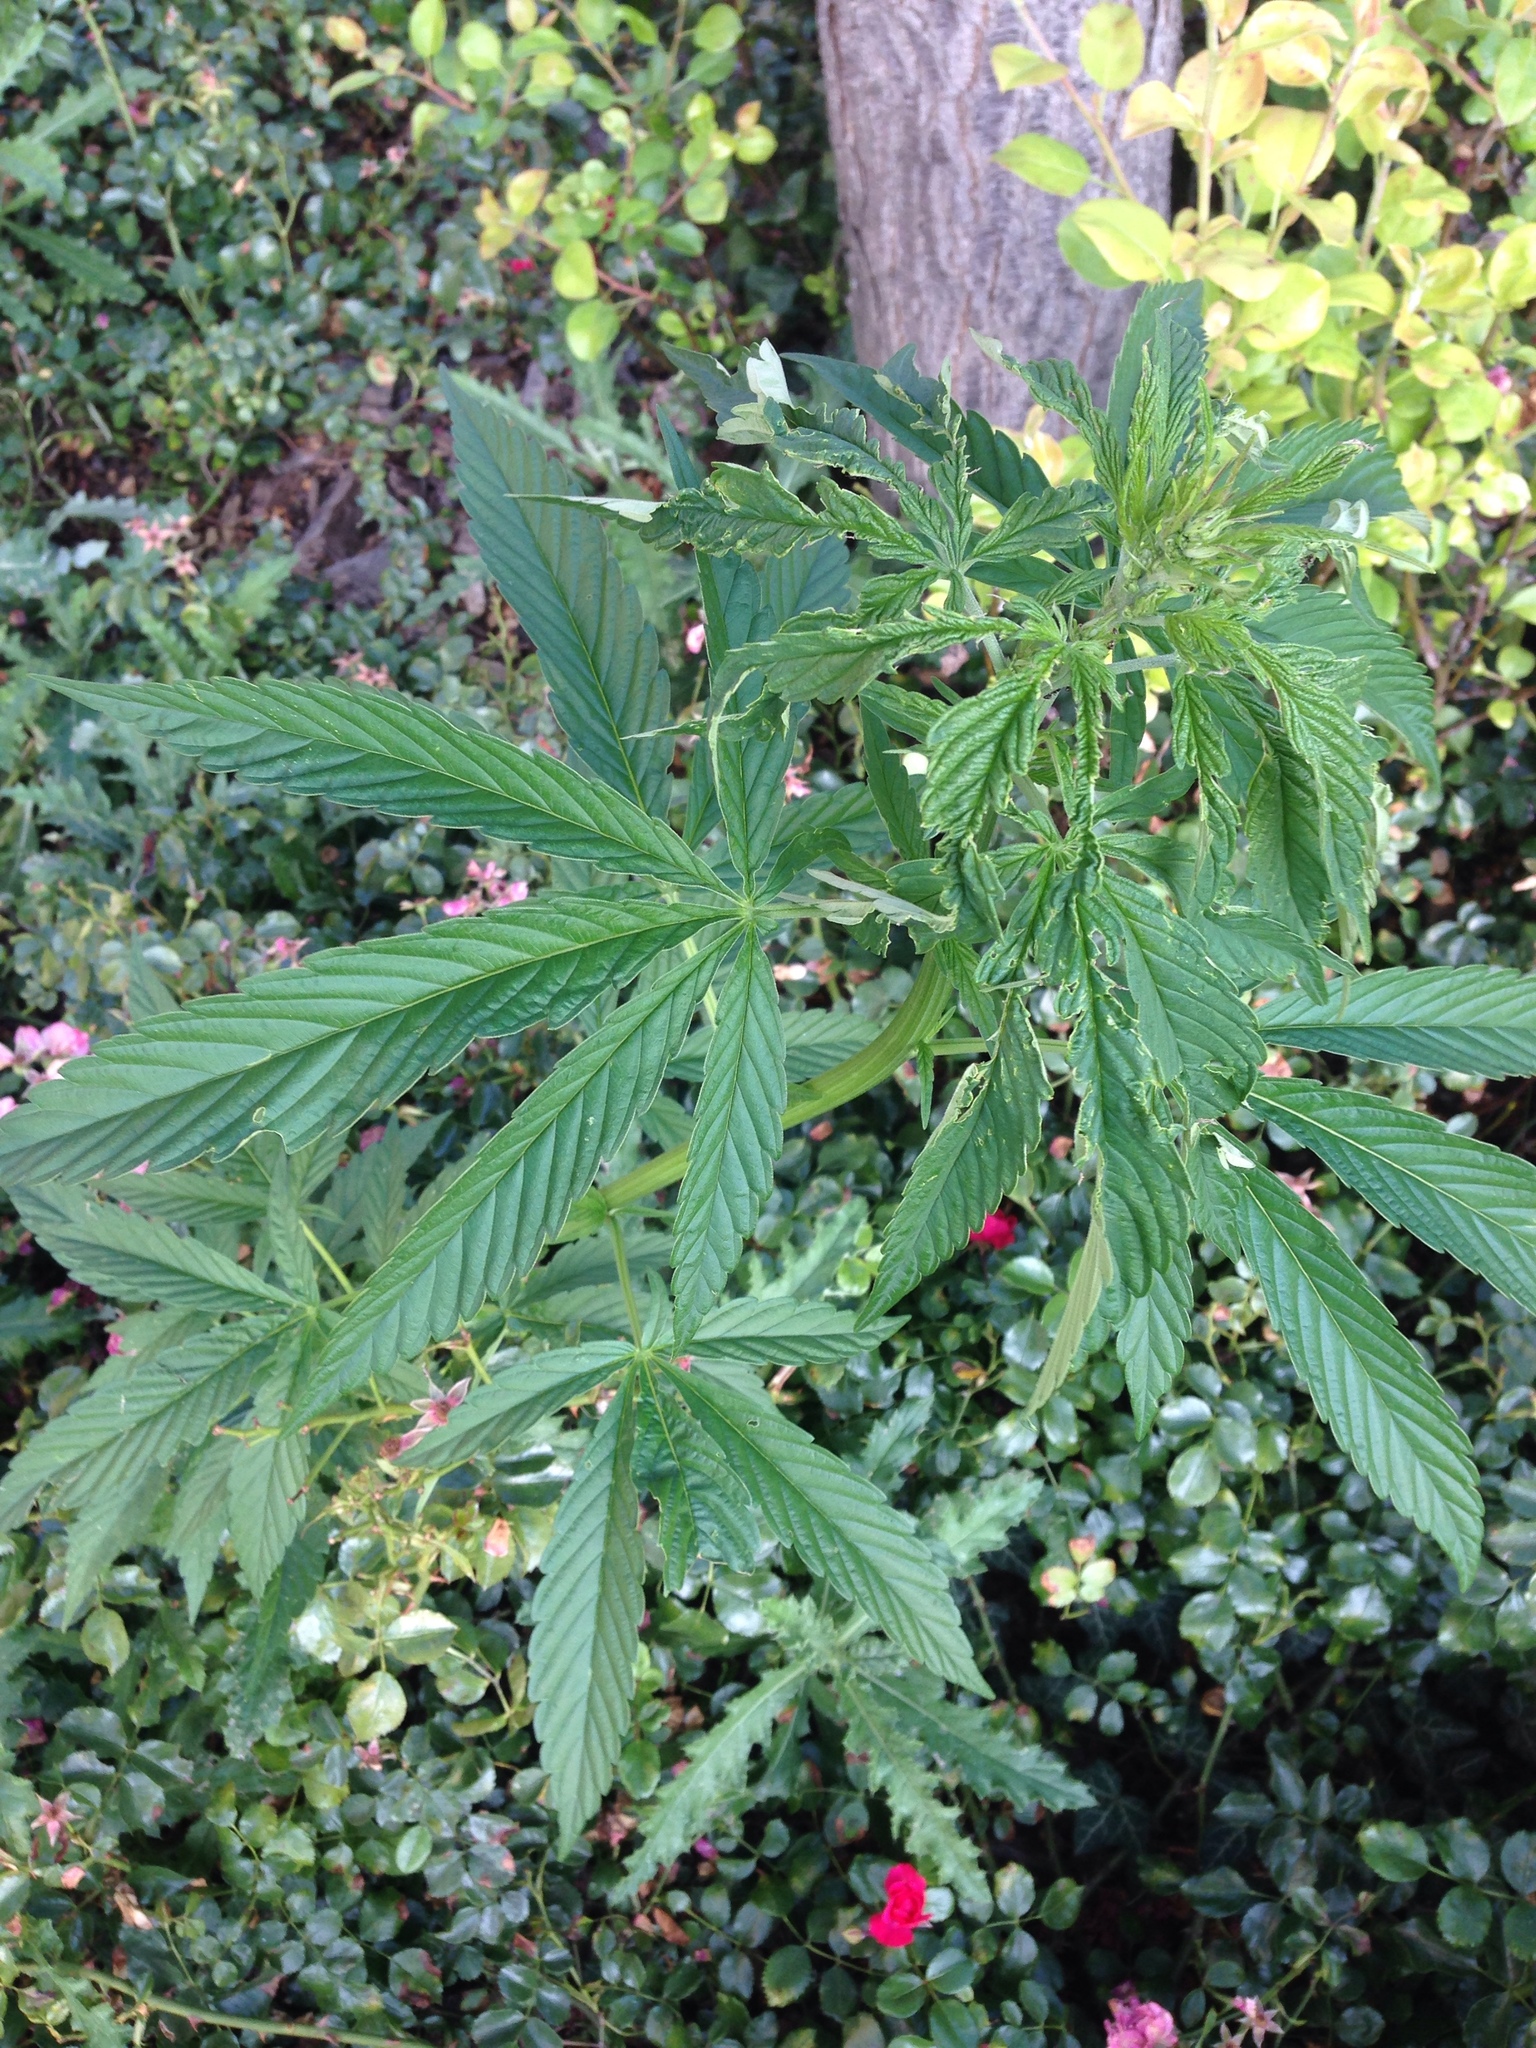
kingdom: Plantae
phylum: Tracheophyta
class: Magnoliopsida
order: Rosales
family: Cannabaceae
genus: Cannabis
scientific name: Cannabis sativa
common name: Hemp
